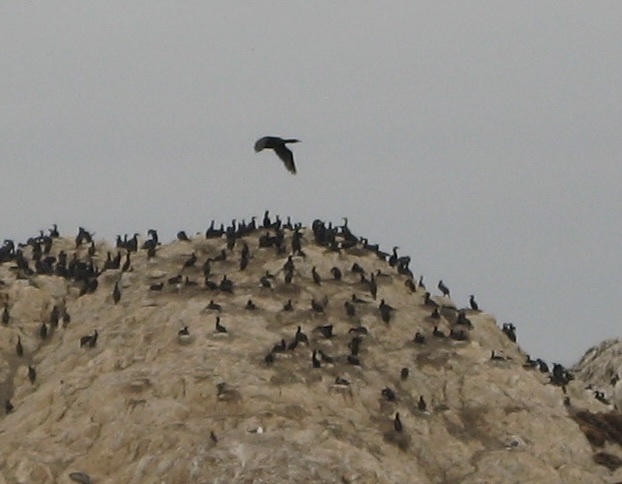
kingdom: Animalia
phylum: Chordata
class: Aves
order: Suliformes
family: Phalacrocoracidae
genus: Urile
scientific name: Urile penicillatus
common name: Brandt's cormorant
